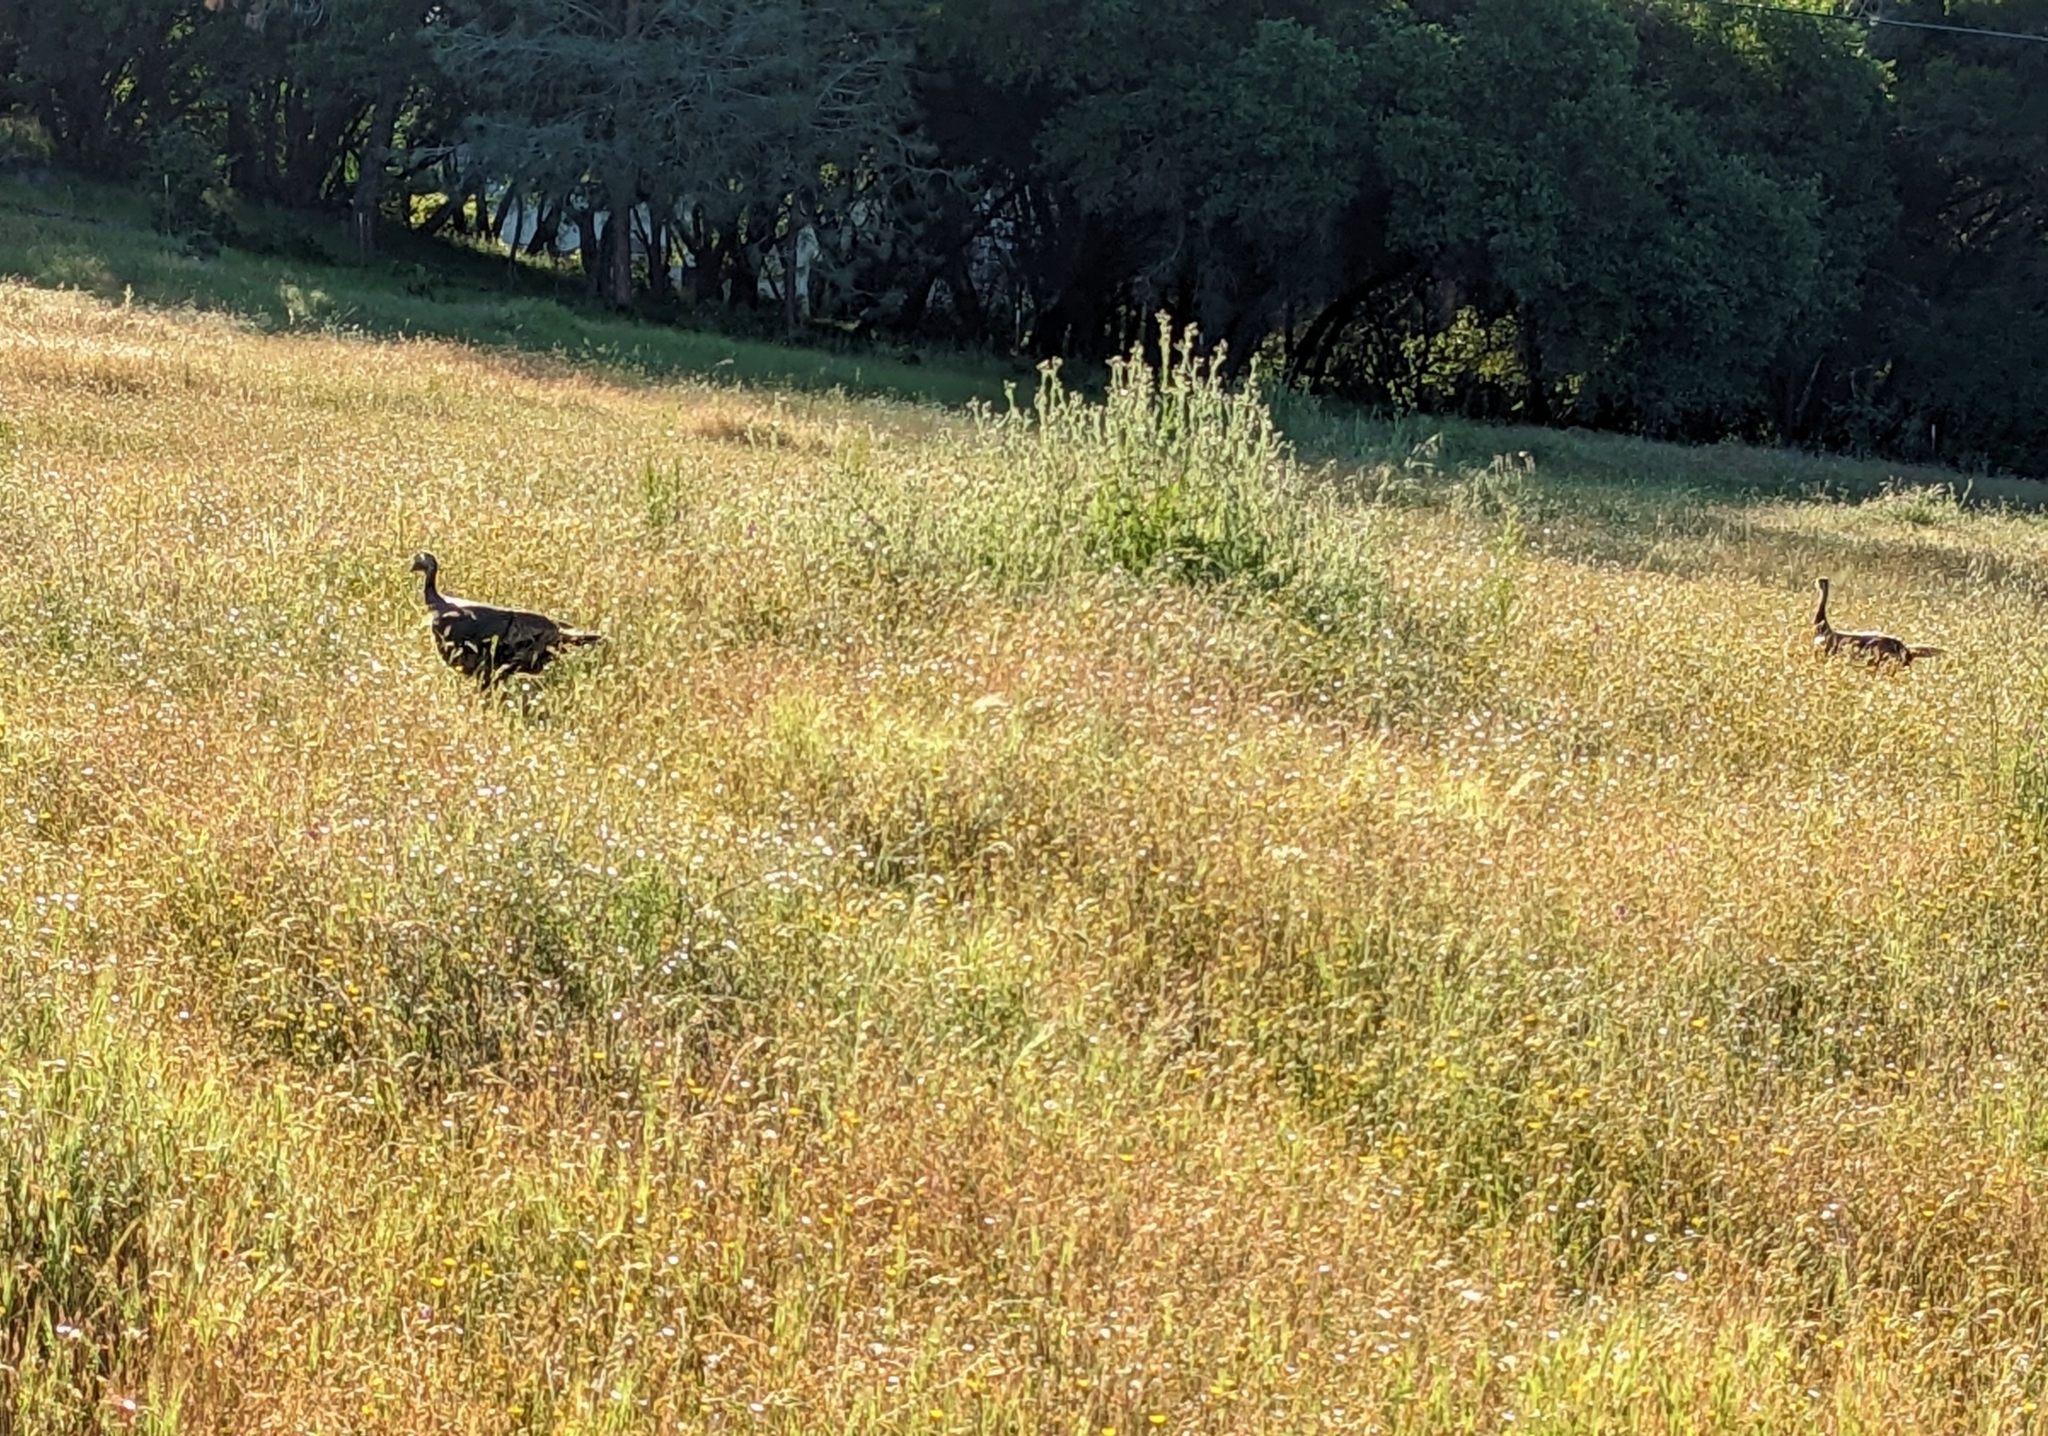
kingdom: Animalia
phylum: Chordata
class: Aves
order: Galliformes
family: Phasianidae
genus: Meleagris
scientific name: Meleagris gallopavo
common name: Wild turkey
